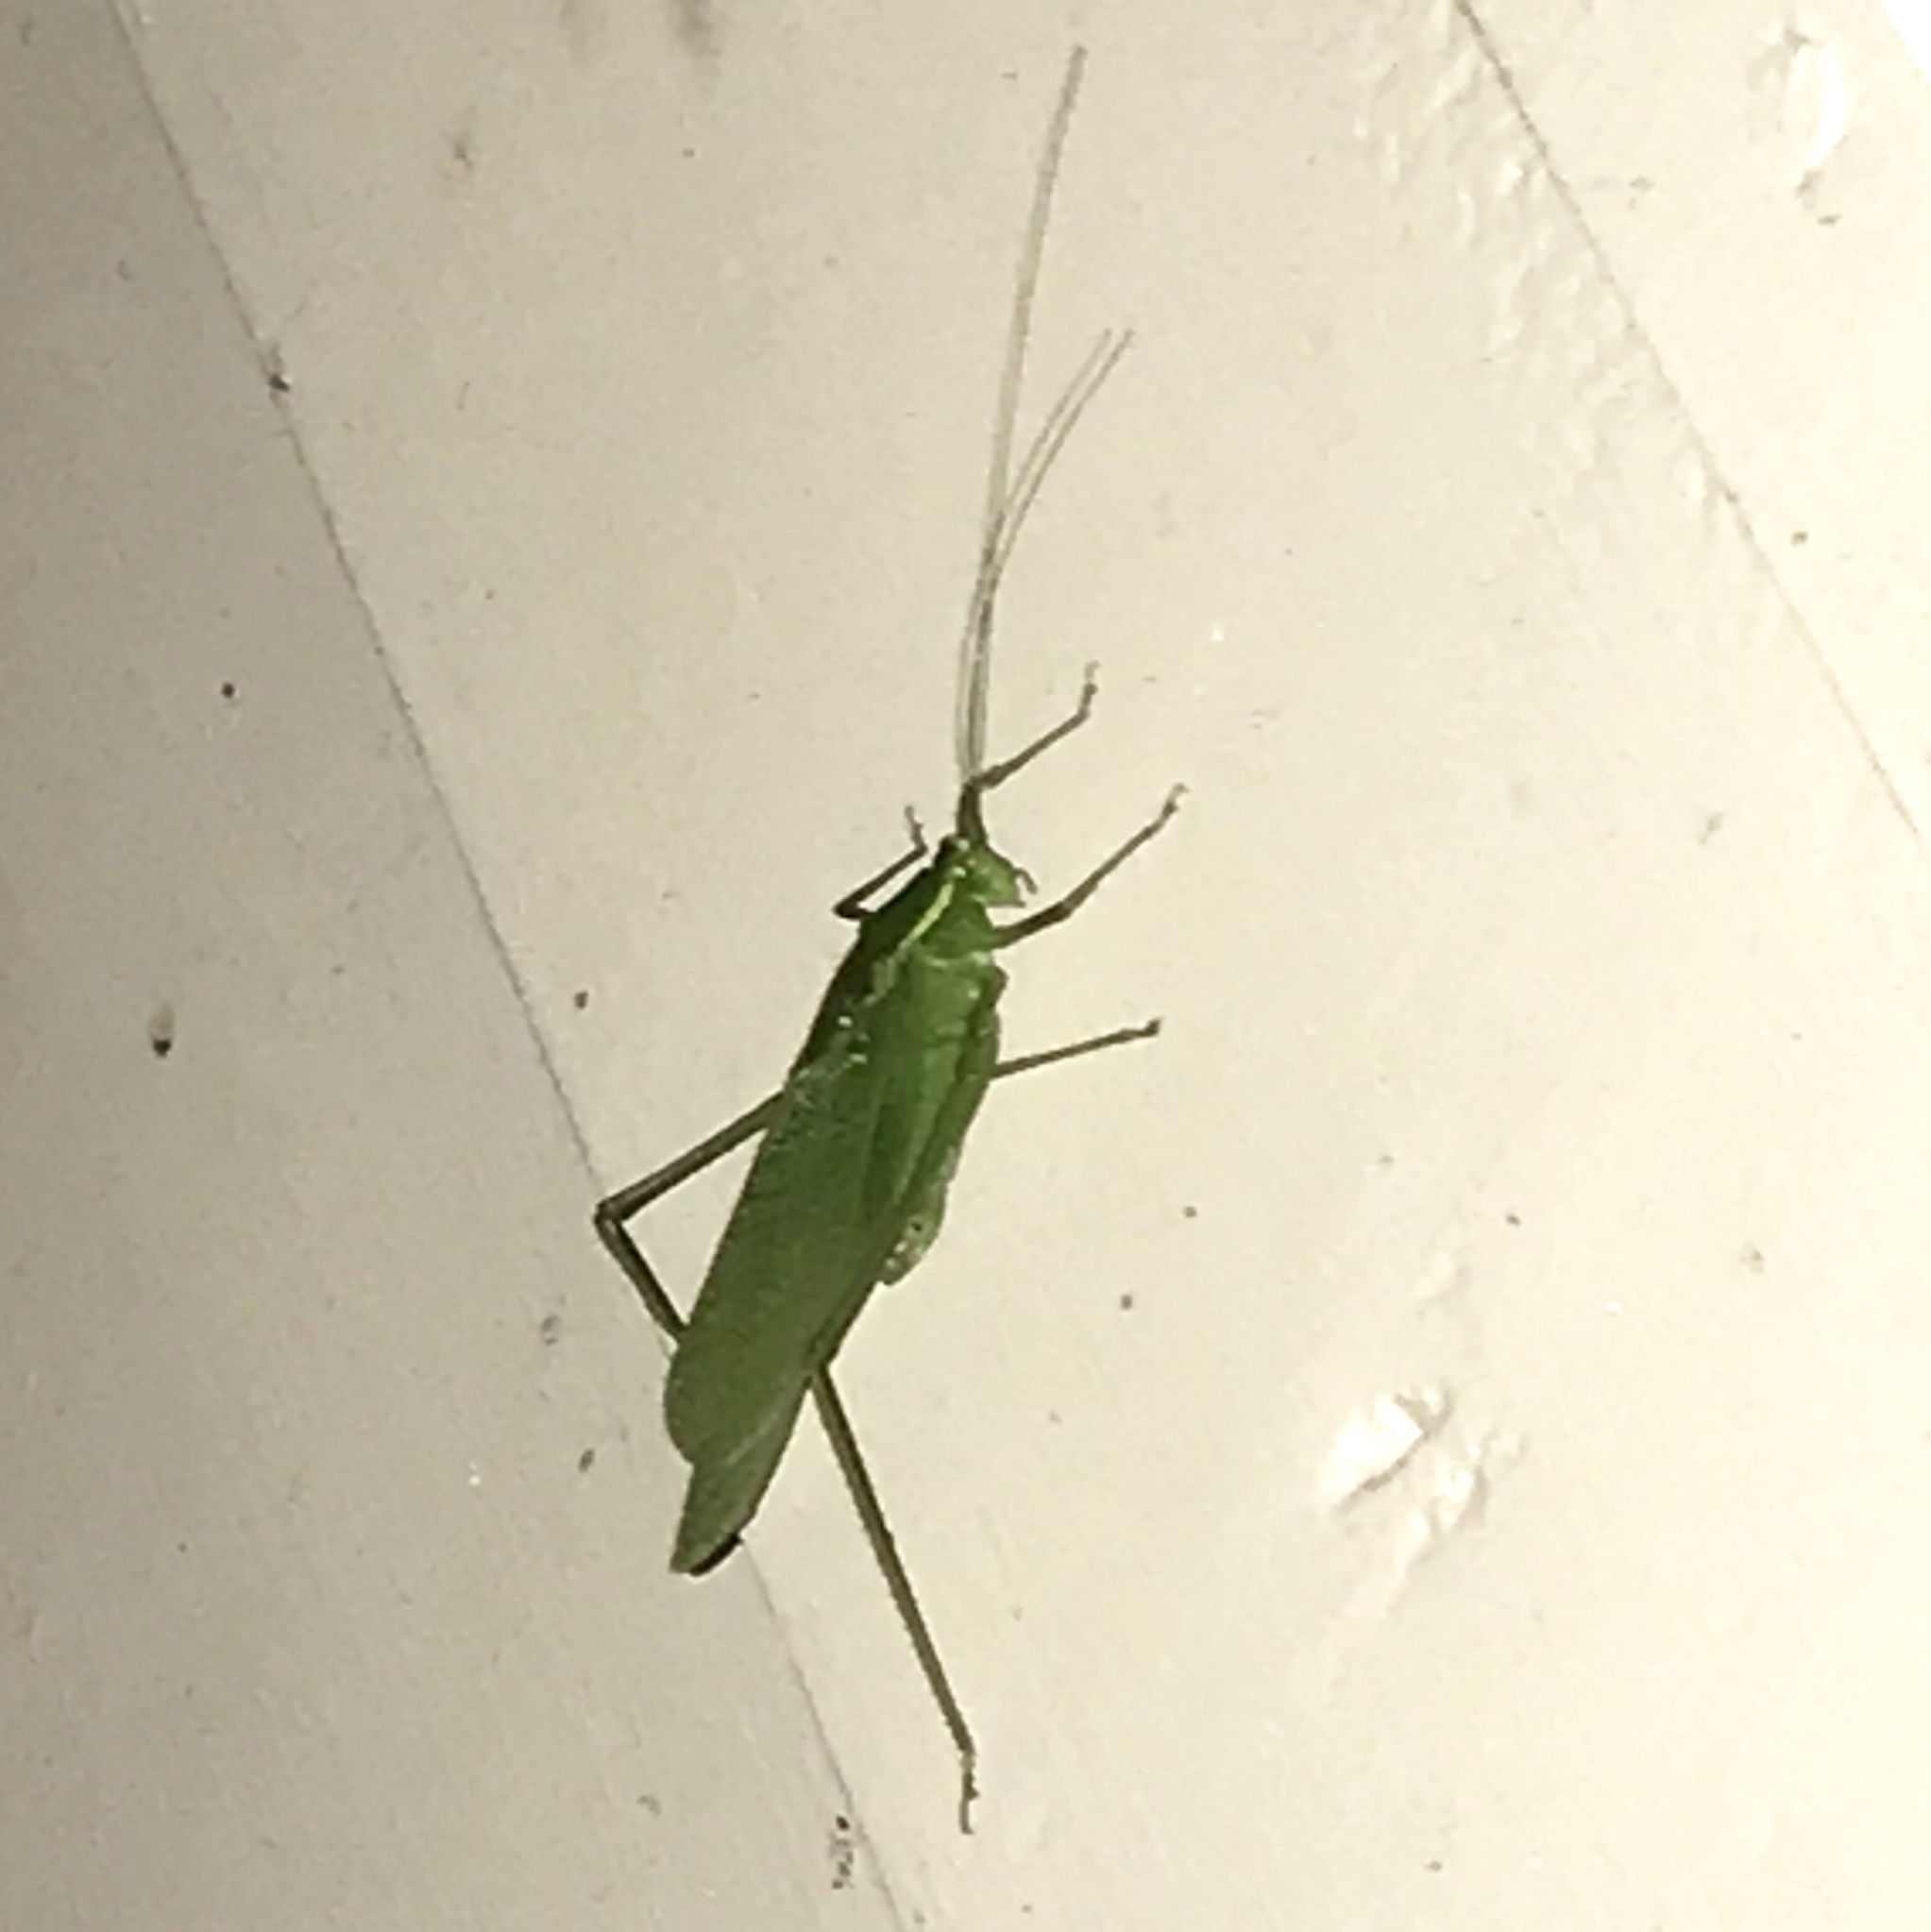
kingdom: Animalia
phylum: Arthropoda
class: Insecta
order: Orthoptera
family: Tettigoniidae
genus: Scudderia
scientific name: Scudderia septentrionalis
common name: Northern bush-katydid
